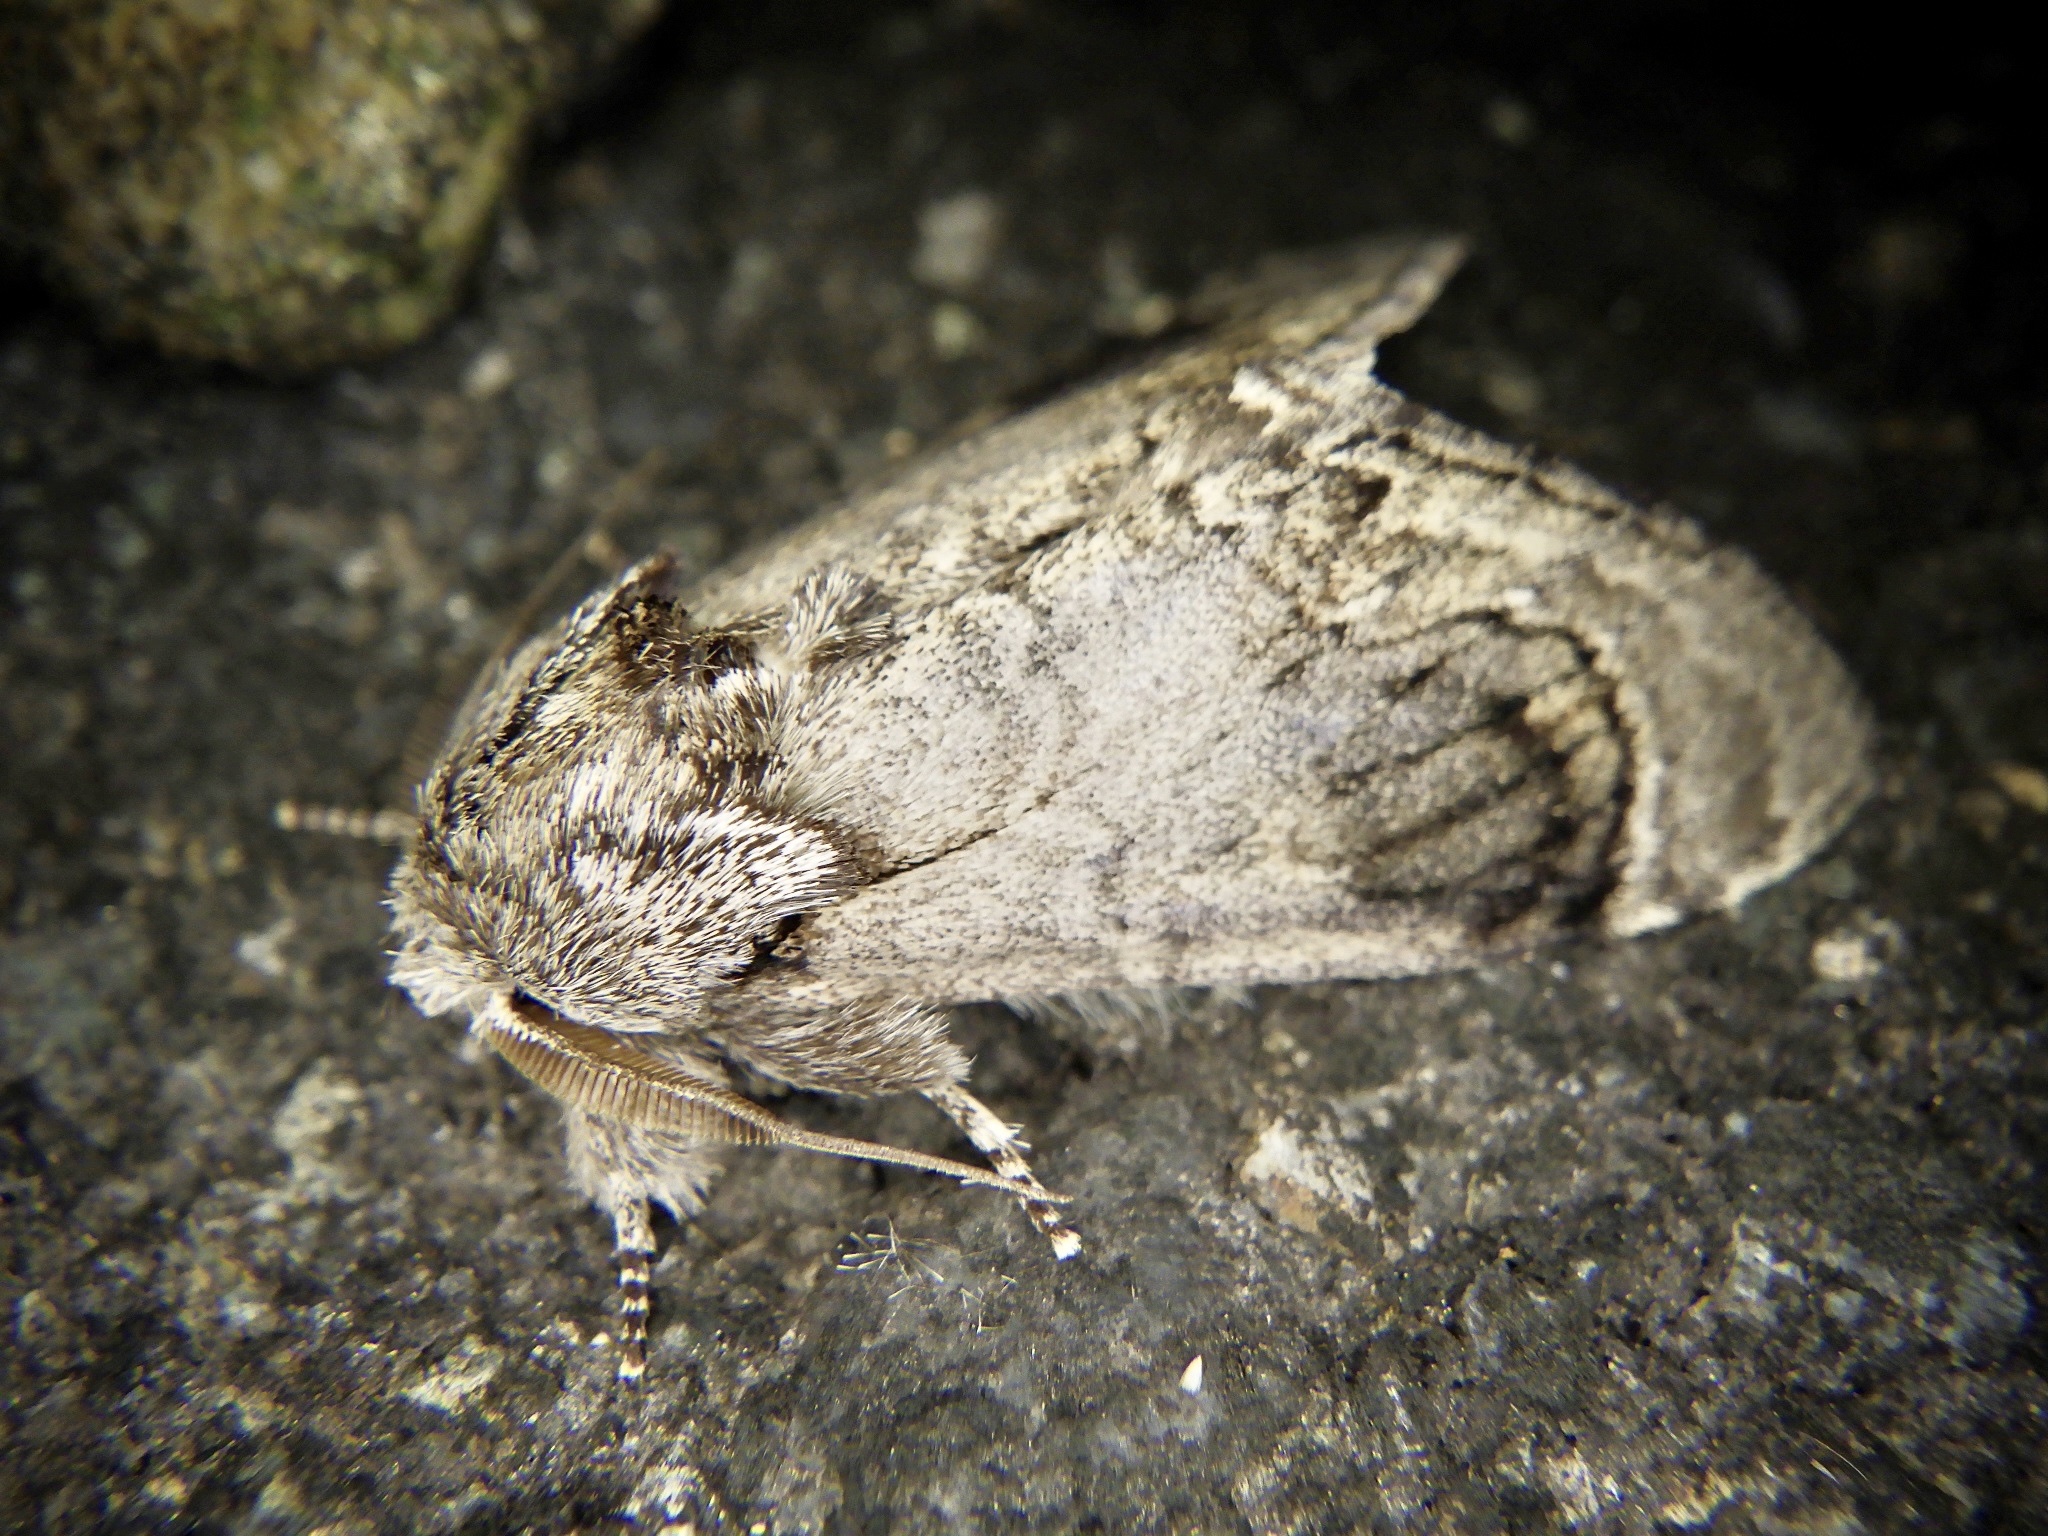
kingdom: Animalia
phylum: Arthropoda
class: Insecta
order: Lepidoptera
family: Notodontidae
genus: Fentonia
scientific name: Fentonia ocypete
